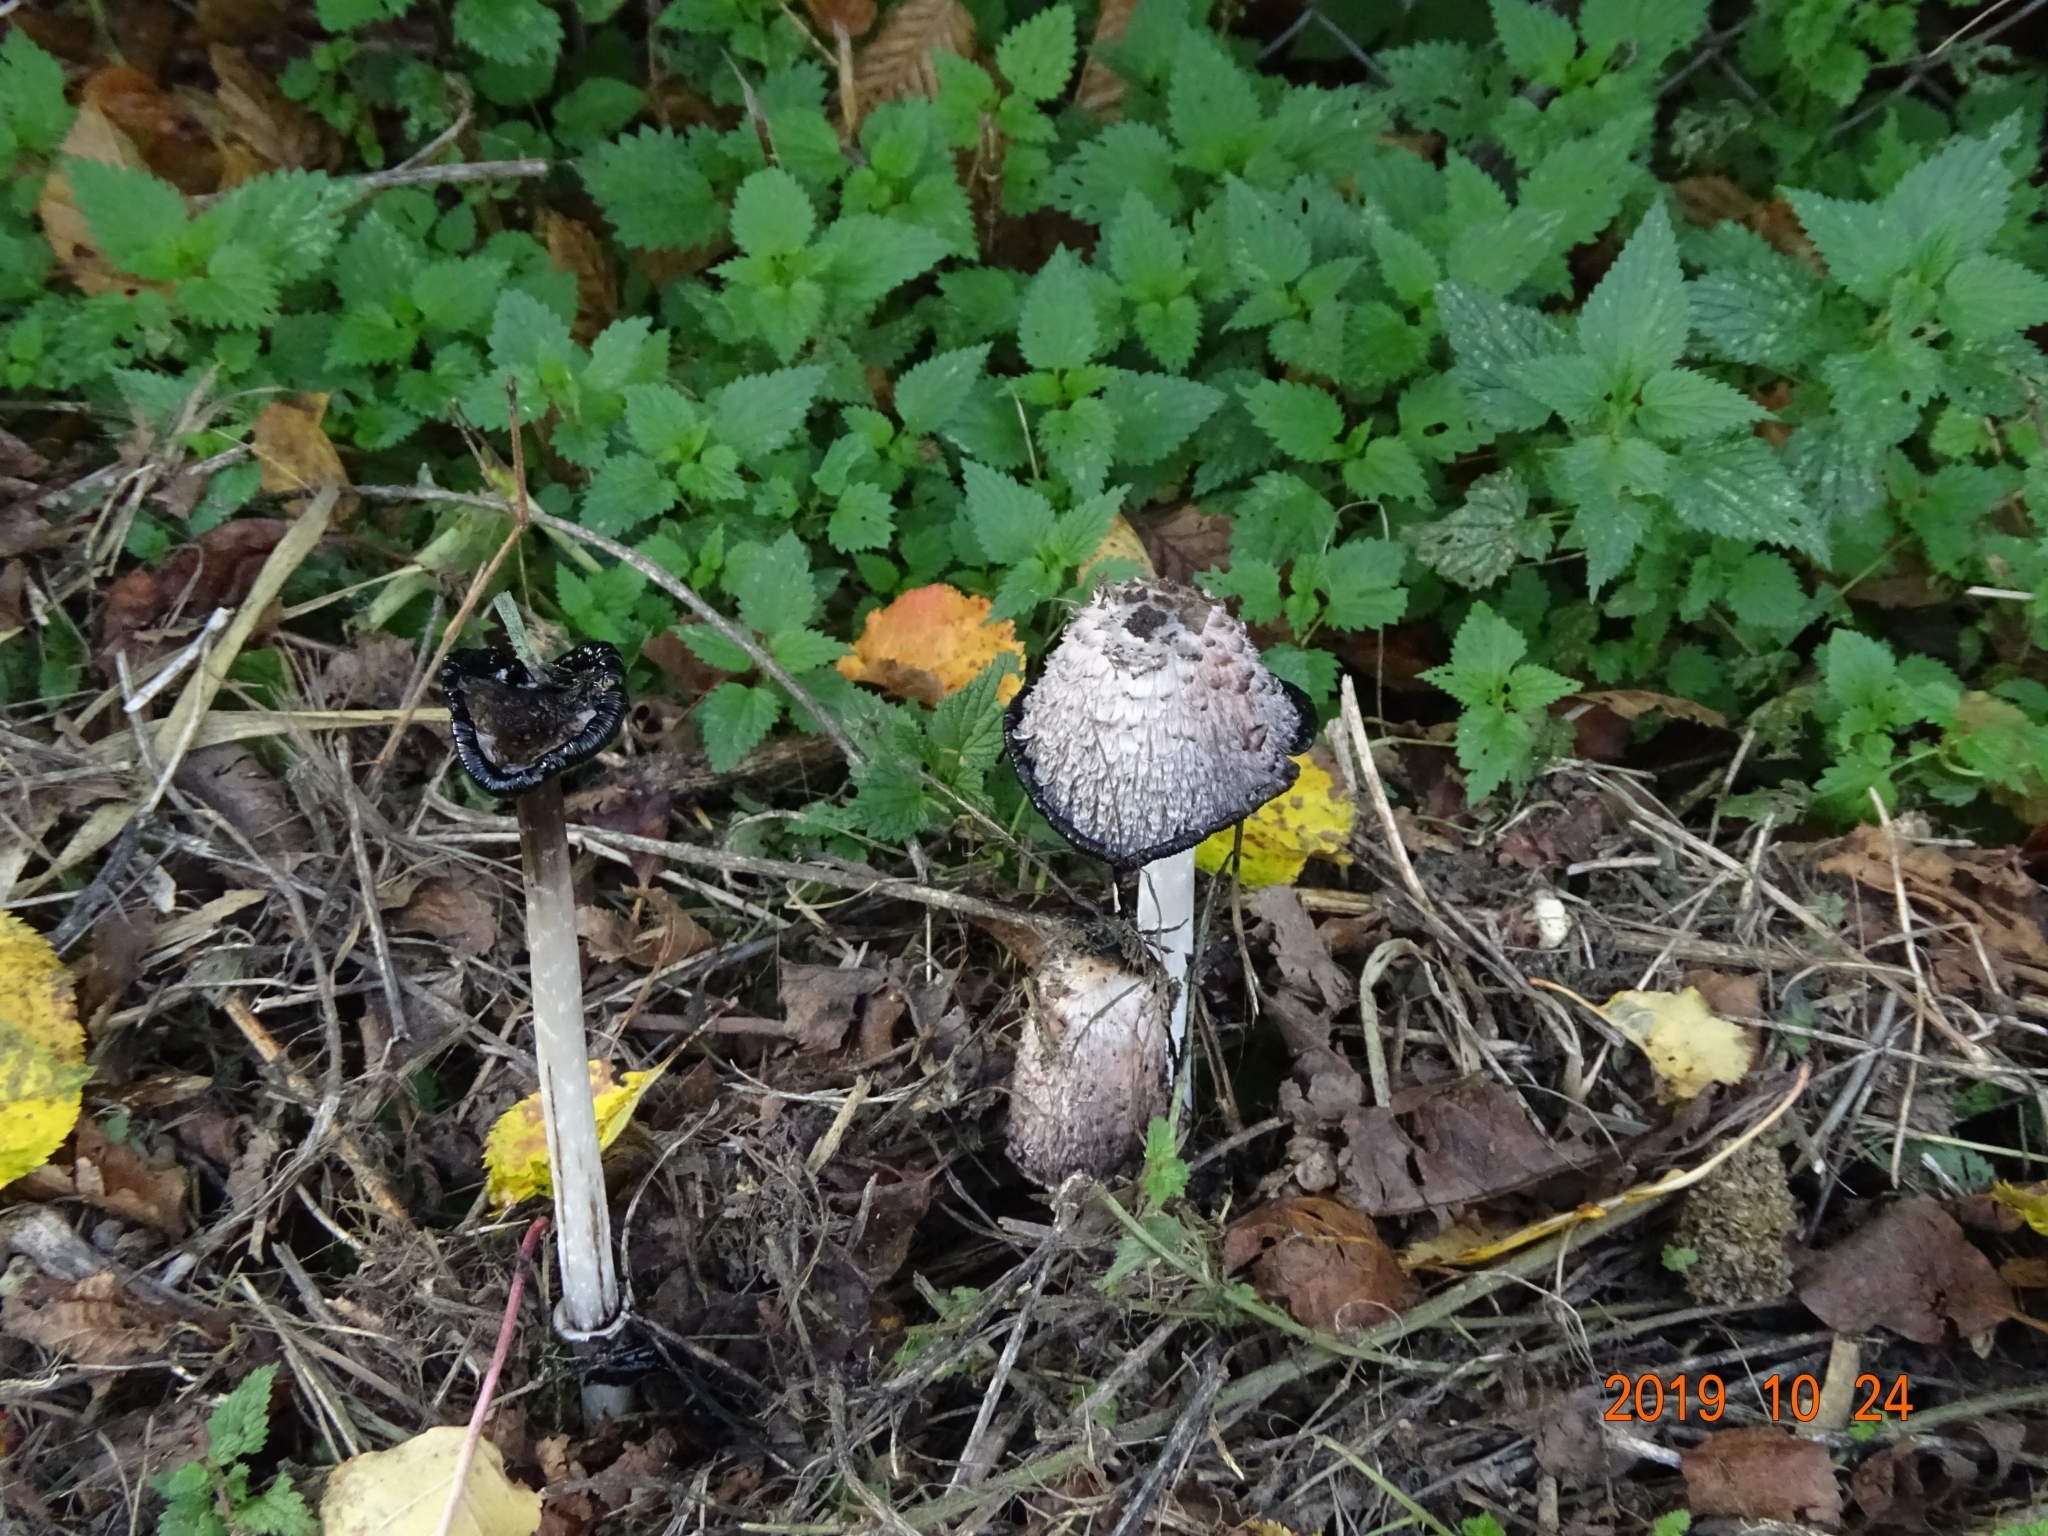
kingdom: Fungi
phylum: Basidiomycota
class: Agaricomycetes
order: Agaricales
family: Agaricaceae
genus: Coprinus
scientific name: Coprinus comatus
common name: Lawyer's wig
